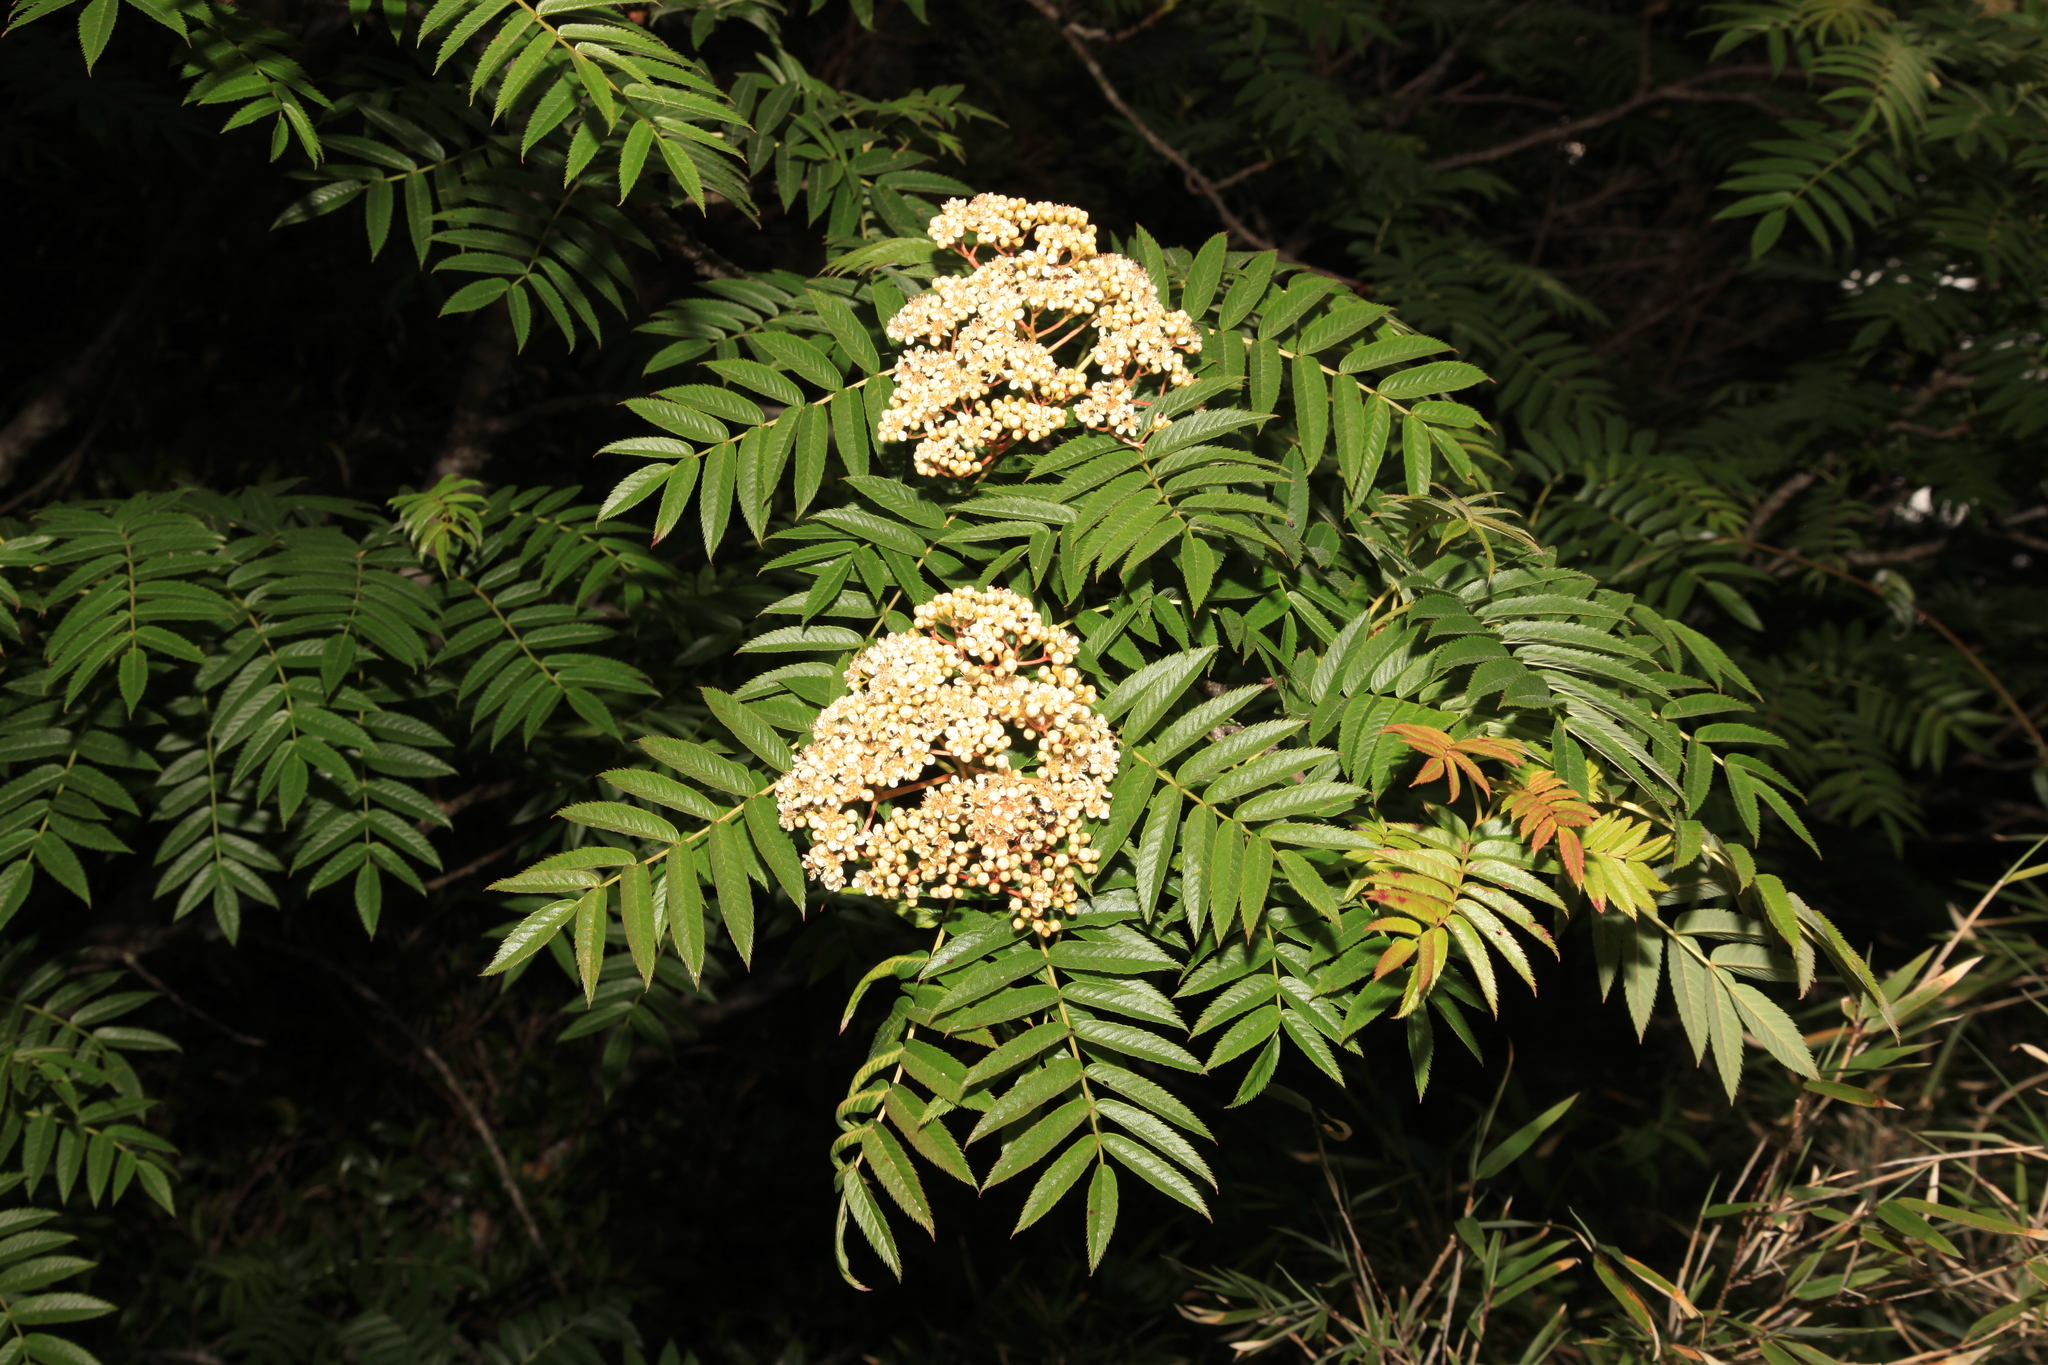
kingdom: Plantae
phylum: Tracheophyta
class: Magnoliopsida
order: Rosales
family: Rosaceae
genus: Sorbus
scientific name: Sorbus randaiensis
